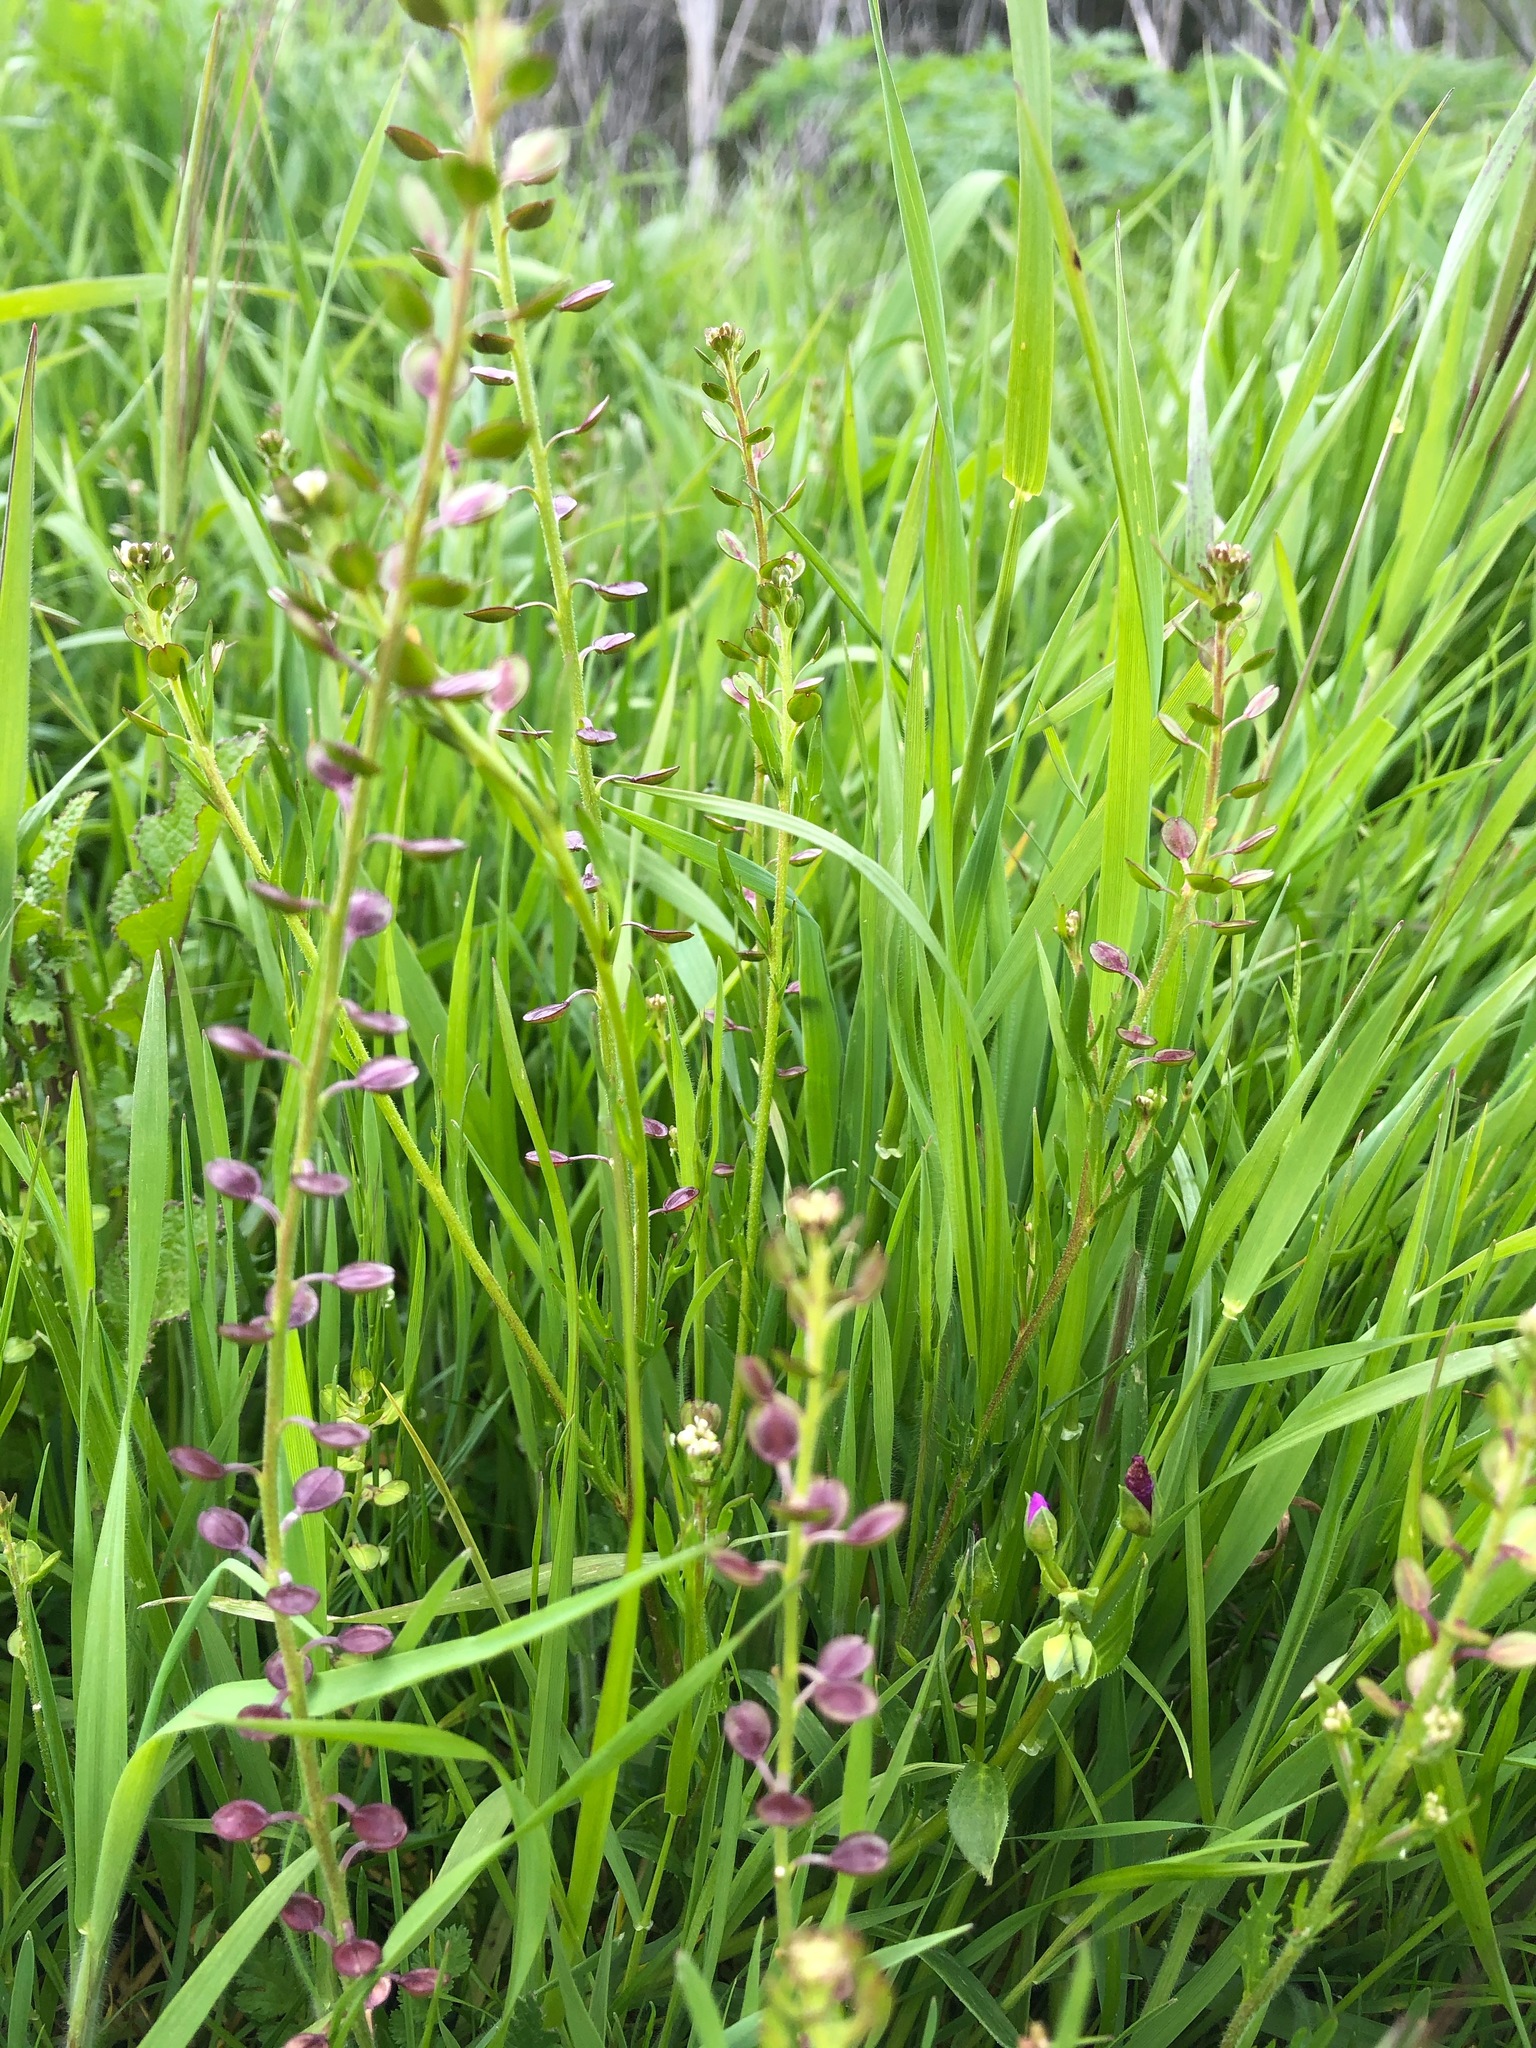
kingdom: Plantae
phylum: Tracheophyta
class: Magnoliopsida
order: Brassicales
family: Brassicaceae
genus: Lepidium
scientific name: Lepidium nitidum
